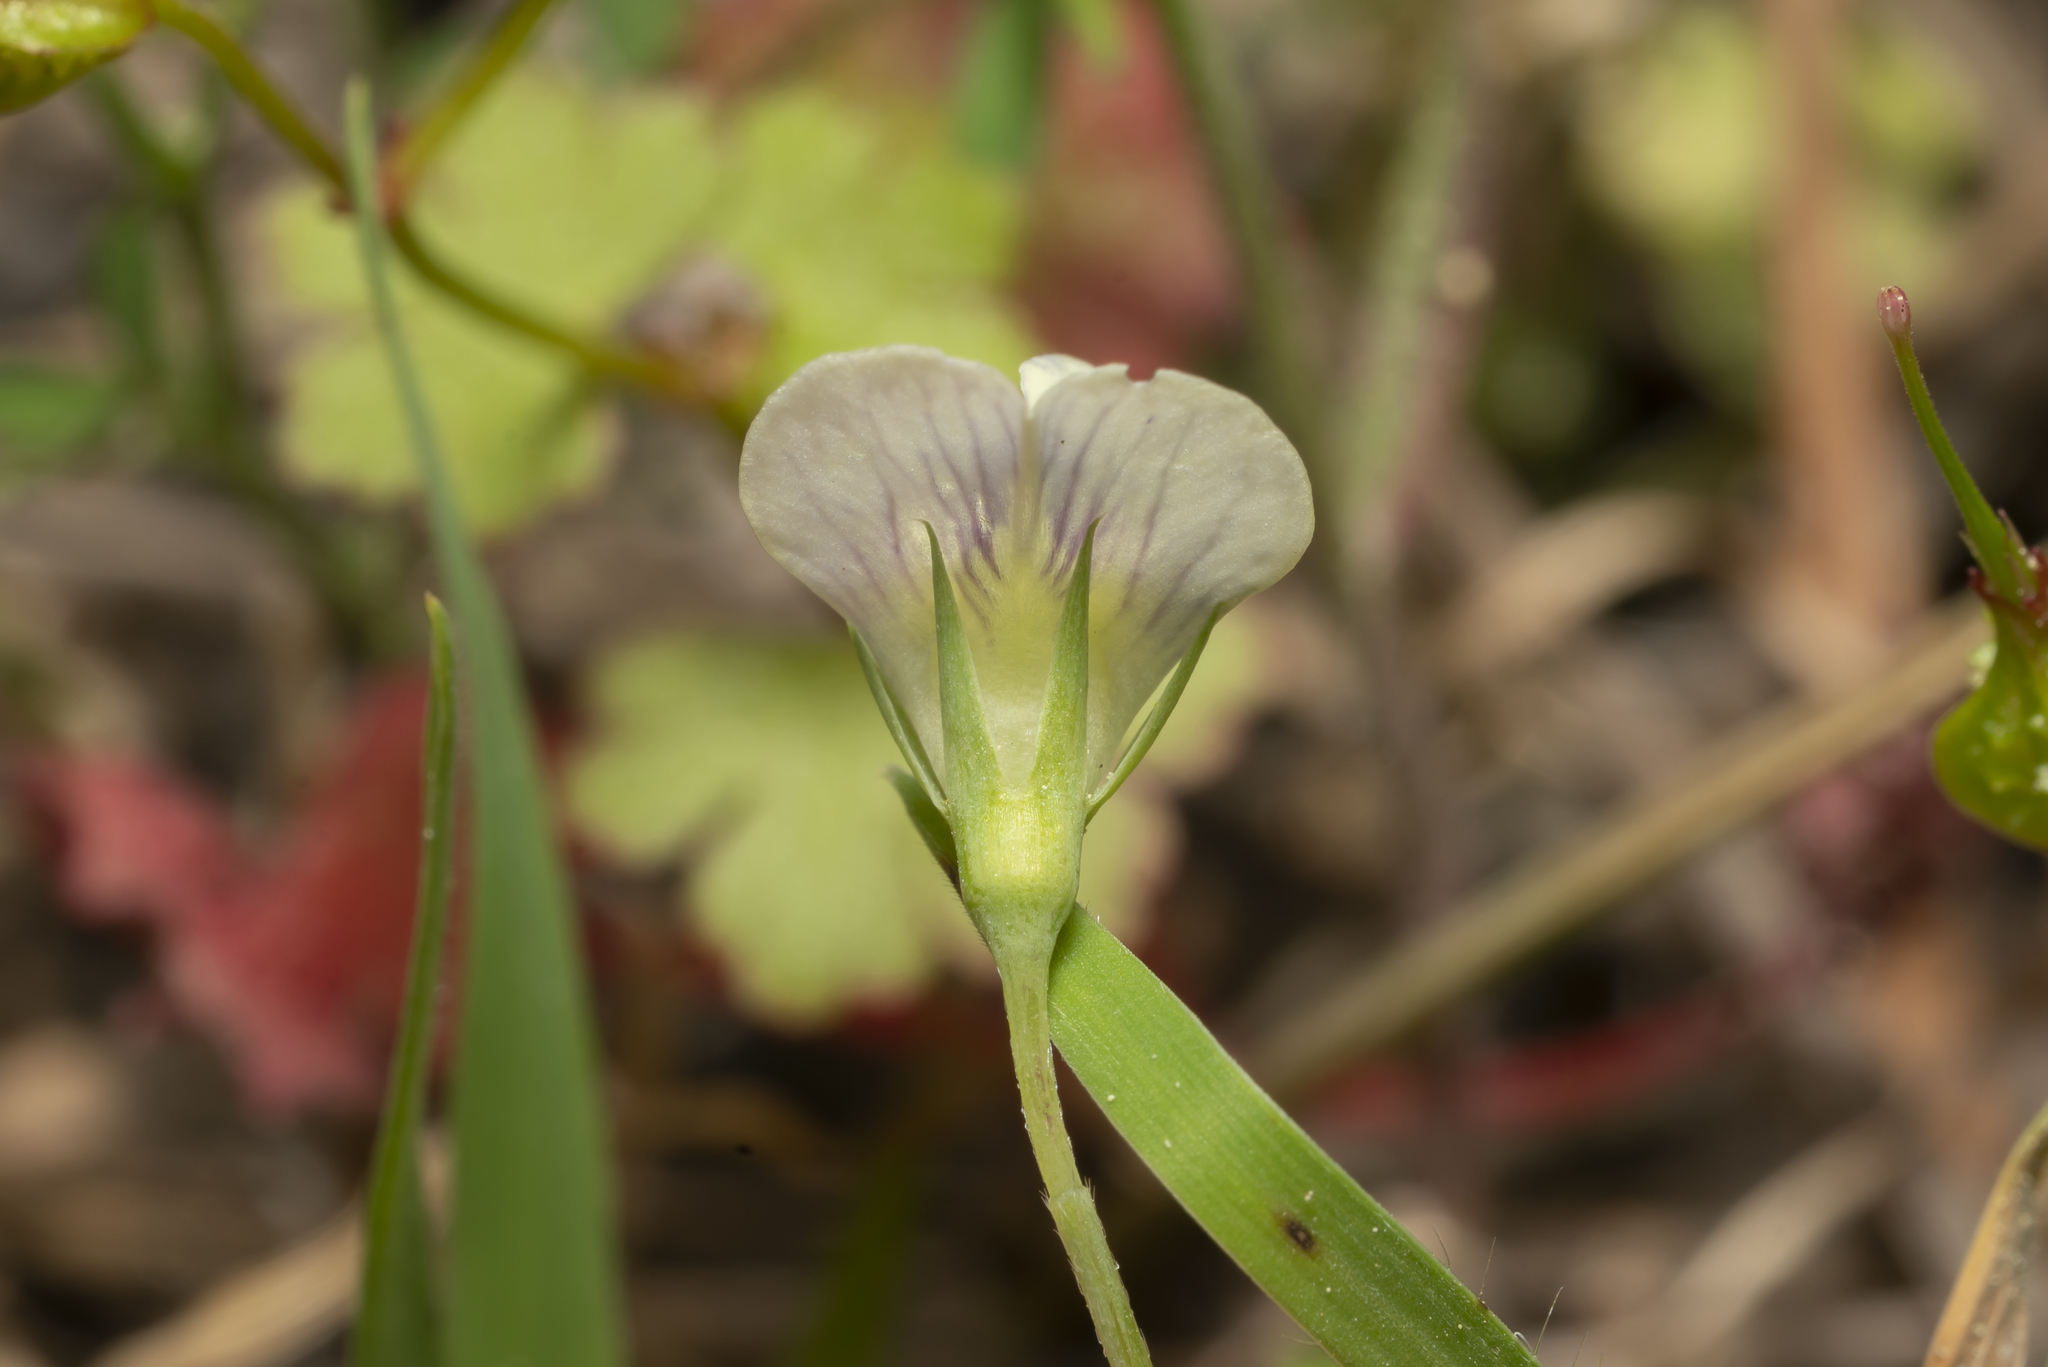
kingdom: Plantae
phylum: Tracheophyta
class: Magnoliopsida
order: Fabales
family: Fabaceae
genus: Lathyrus
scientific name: Lathyrus aphaca
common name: Yellow vetchling
